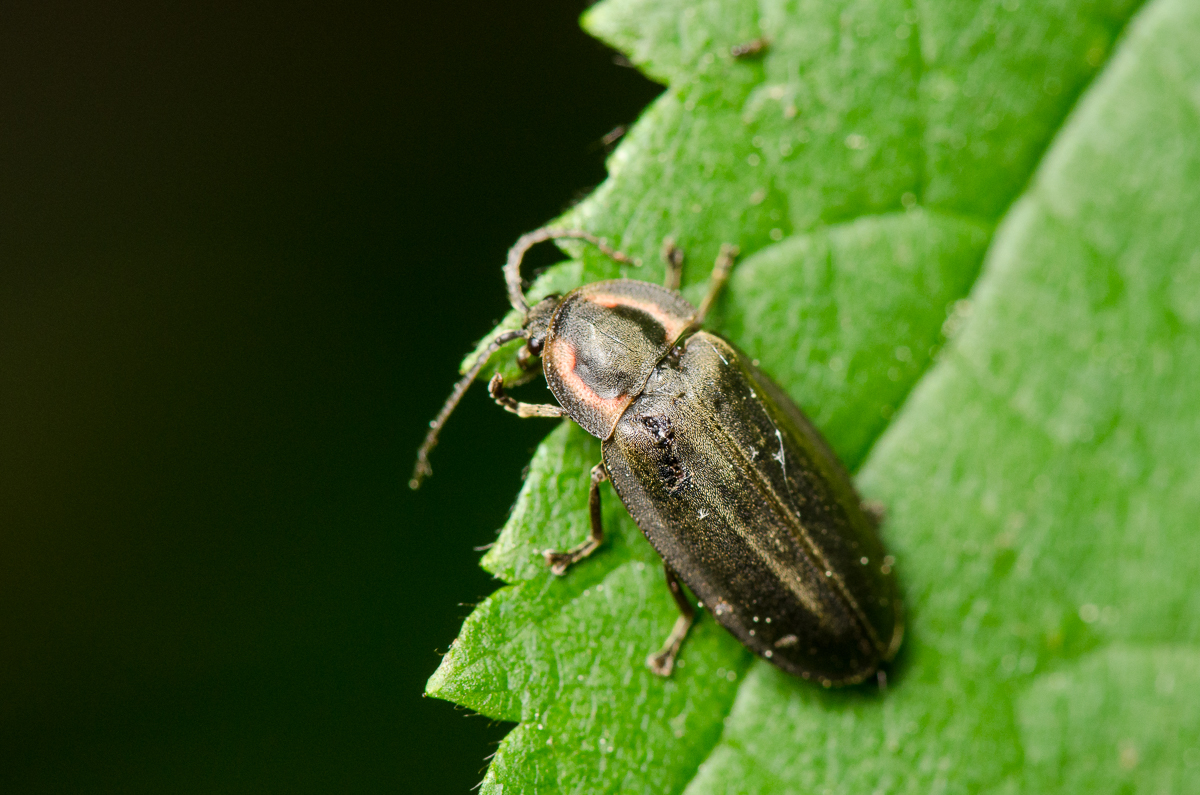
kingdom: Animalia
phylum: Arthropoda
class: Insecta
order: Coleoptera
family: Lampyridae
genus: Photinus
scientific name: Photinus corrusca
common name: Winter firefly
